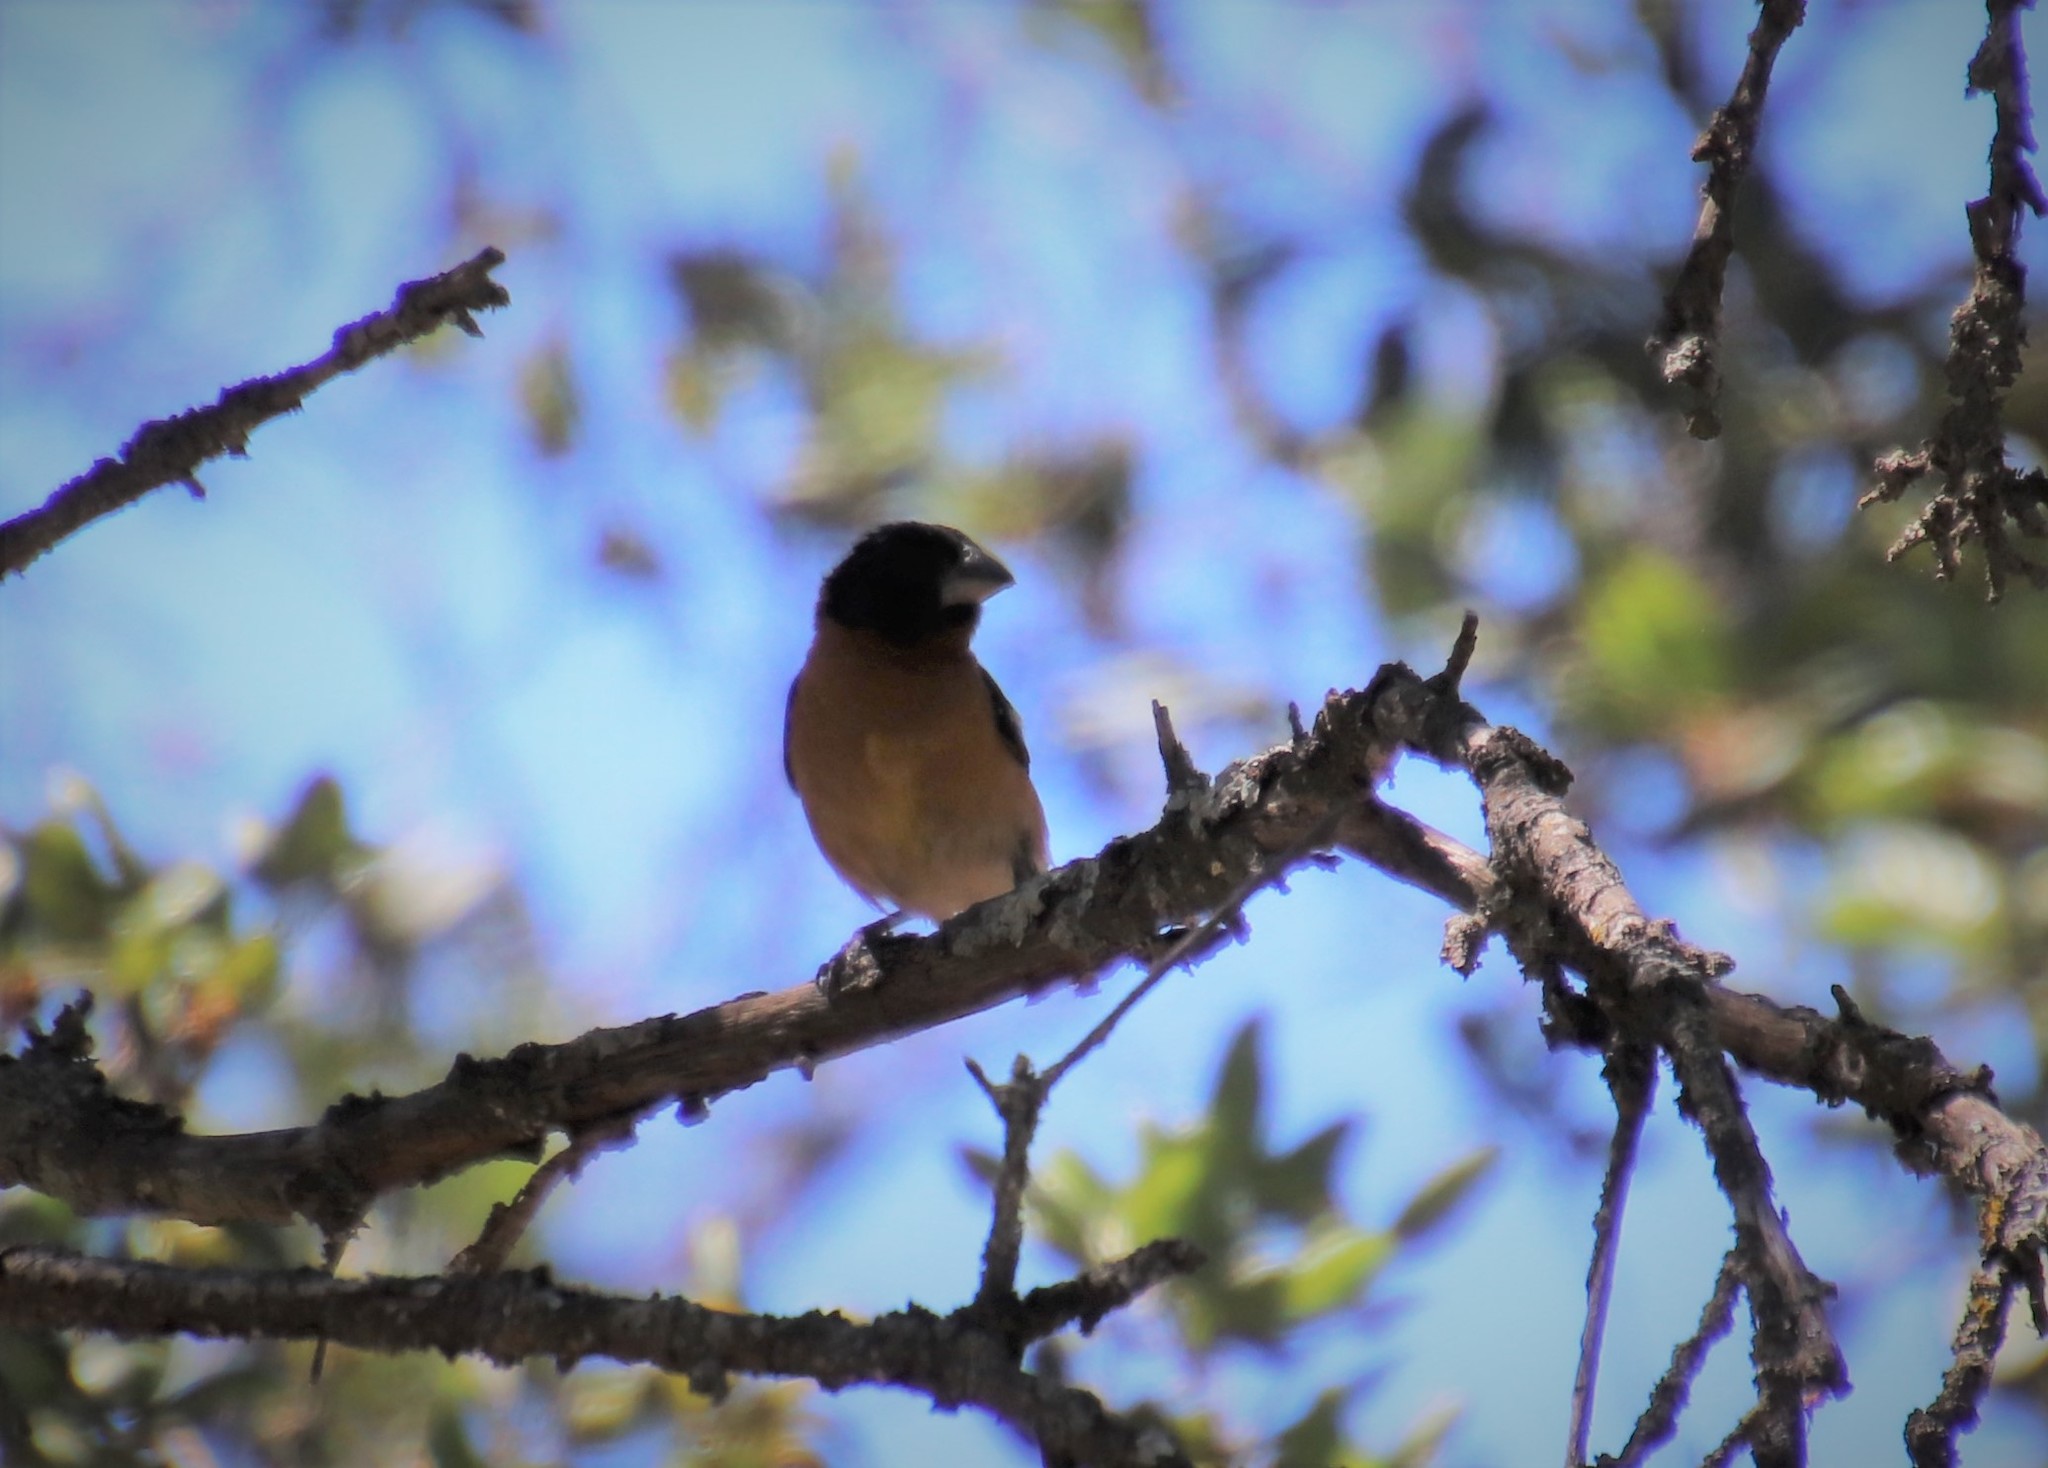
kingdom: Animalia
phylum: Chordata
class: Aves
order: Passeriformes
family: Cardinalidae
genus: Pheucticus
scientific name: Pheucticus melanocephalus
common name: Black-headed grosbeak
